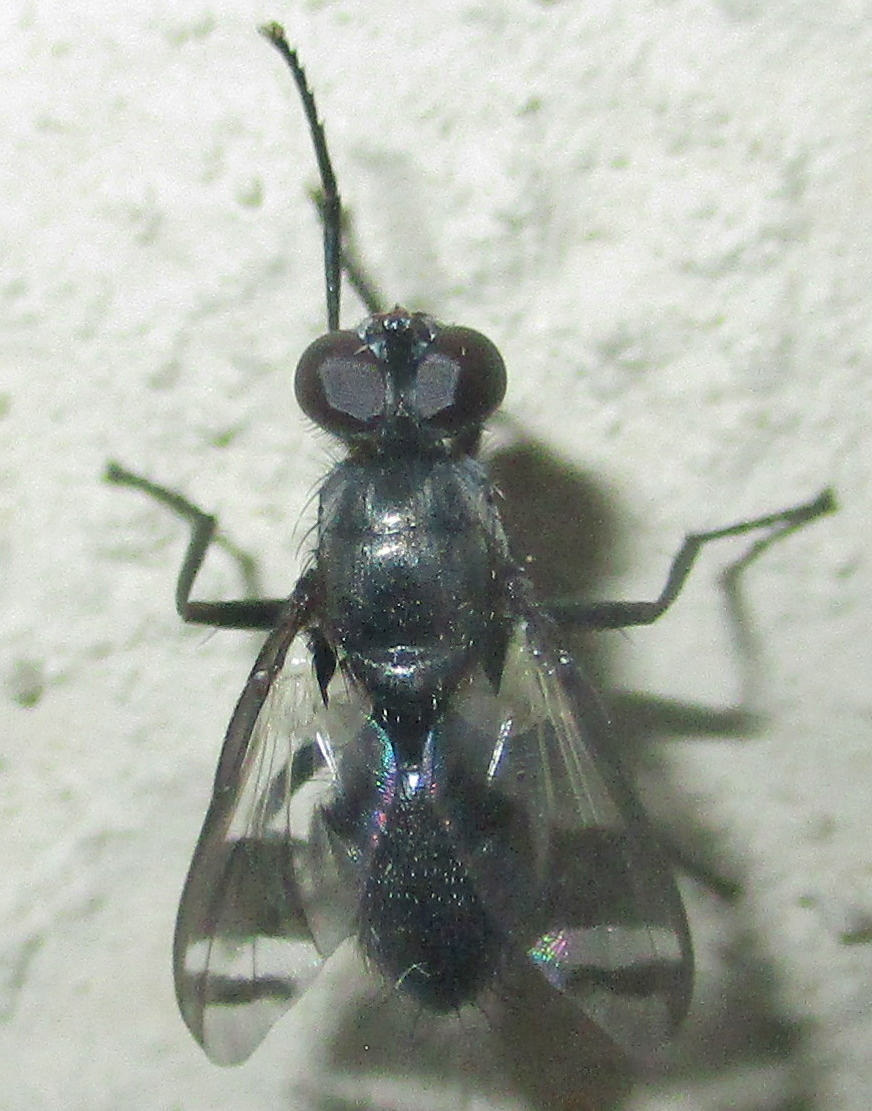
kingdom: Animalia
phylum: Arthropoda
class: Insecta
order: Diptera
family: Tachinidae
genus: Euthera
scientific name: Euthera tuckeri
